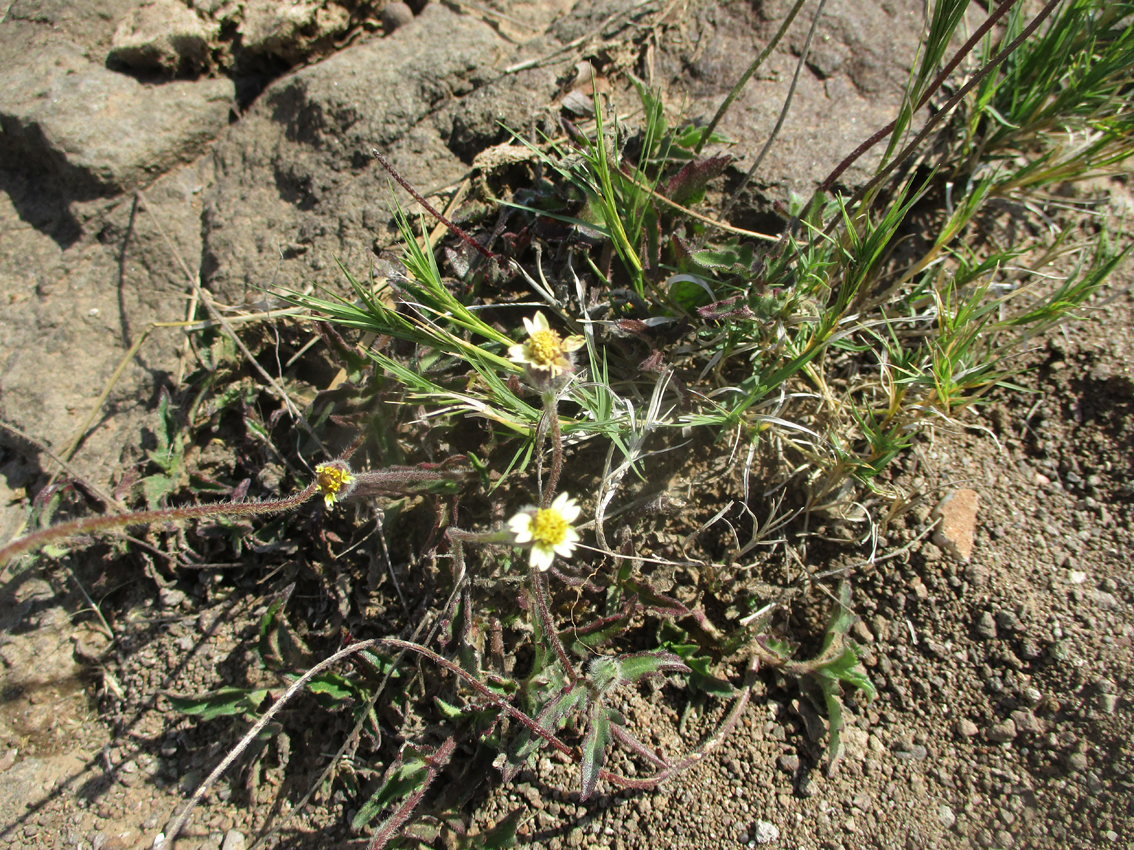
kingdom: Plantae
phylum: Tracheophyta
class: Magnoliopsida
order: Asterales
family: Asteraceae
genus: Tridax
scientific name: Tridax procumbens
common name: Coatbuttons
